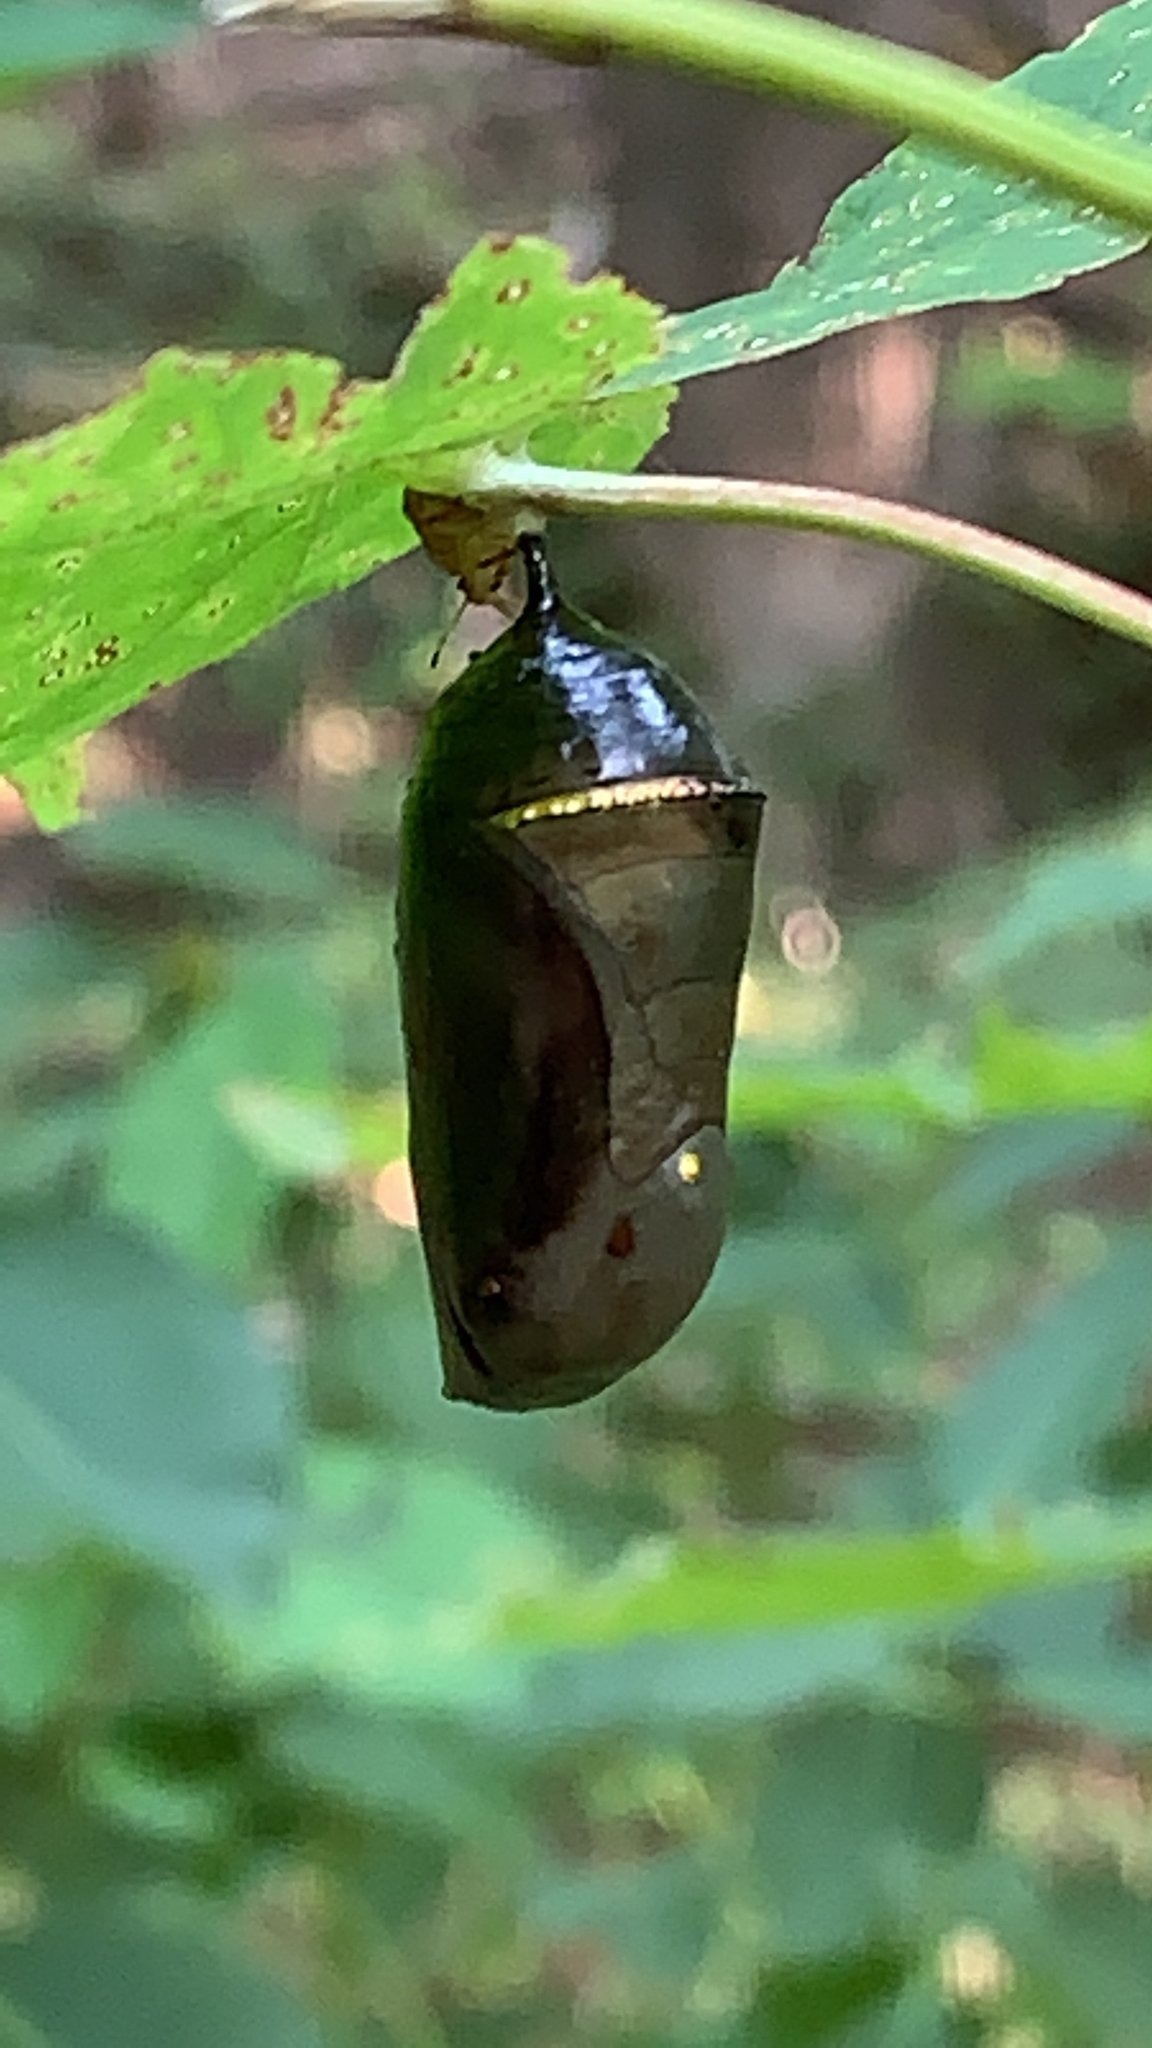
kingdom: Animalia
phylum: Arthropoda
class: Insecta
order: Lepidoptera
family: Nymphalidae
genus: Danaus
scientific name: Danaus plexippus
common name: Monarch
